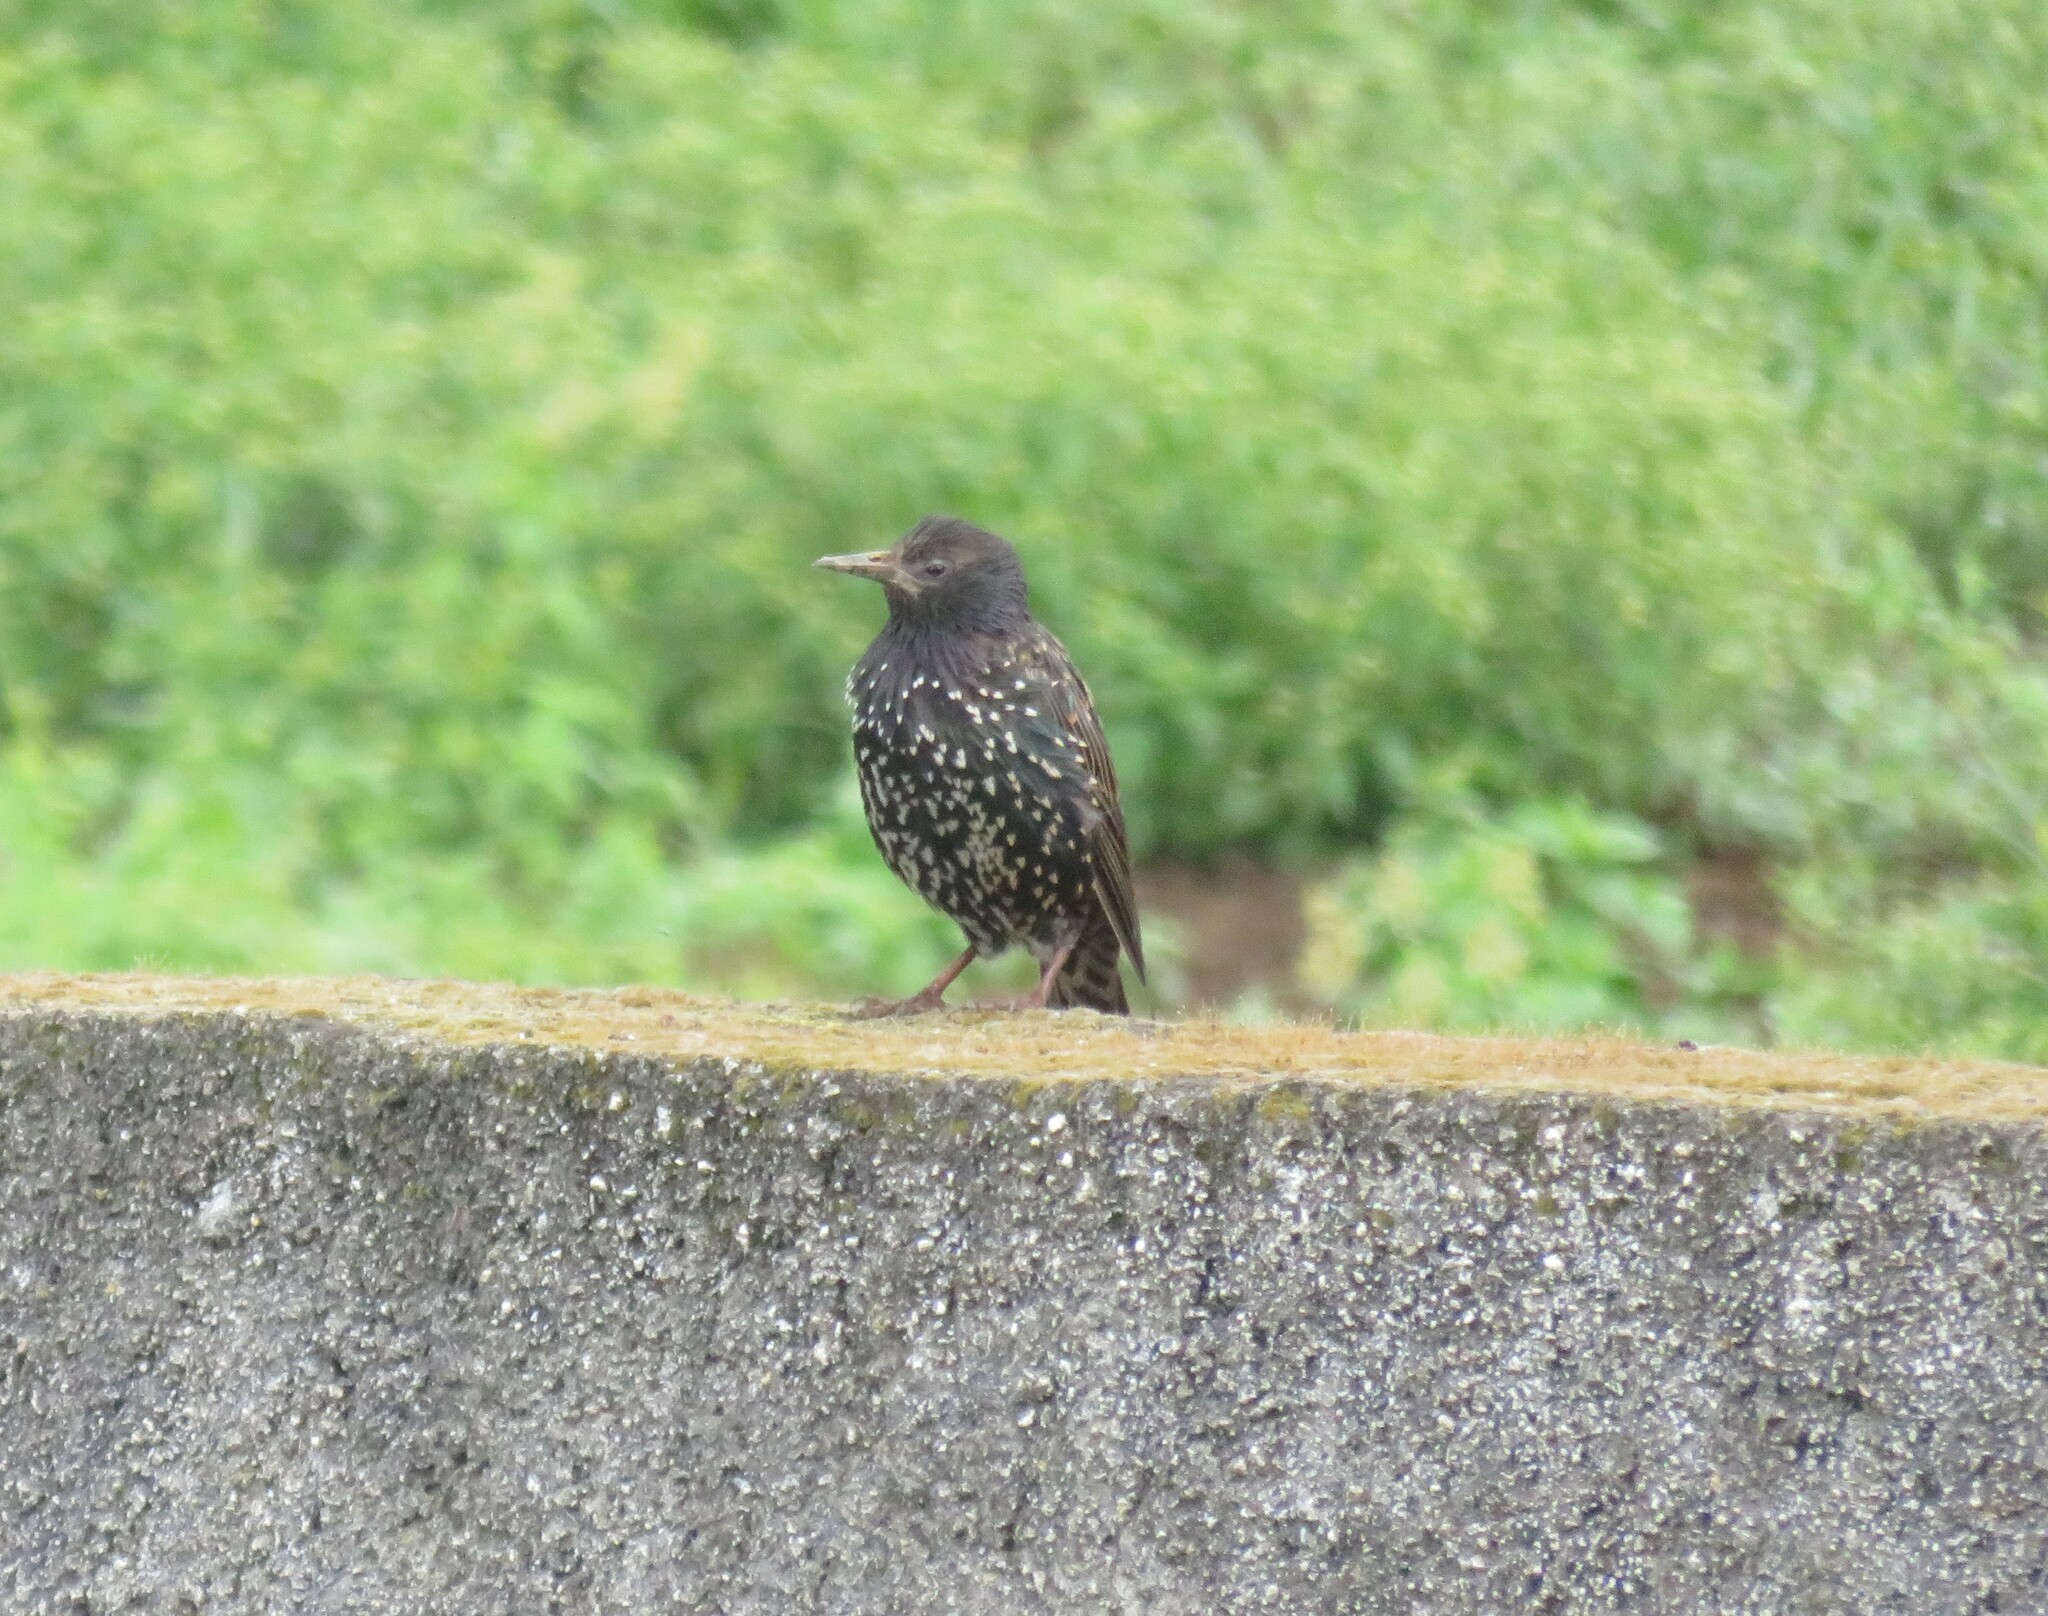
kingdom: Animalia
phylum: Chordata
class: Aves
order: Passeriformes
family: Sturnidae
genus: Sturnus
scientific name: Sturnus vulgaris
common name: Common starling
